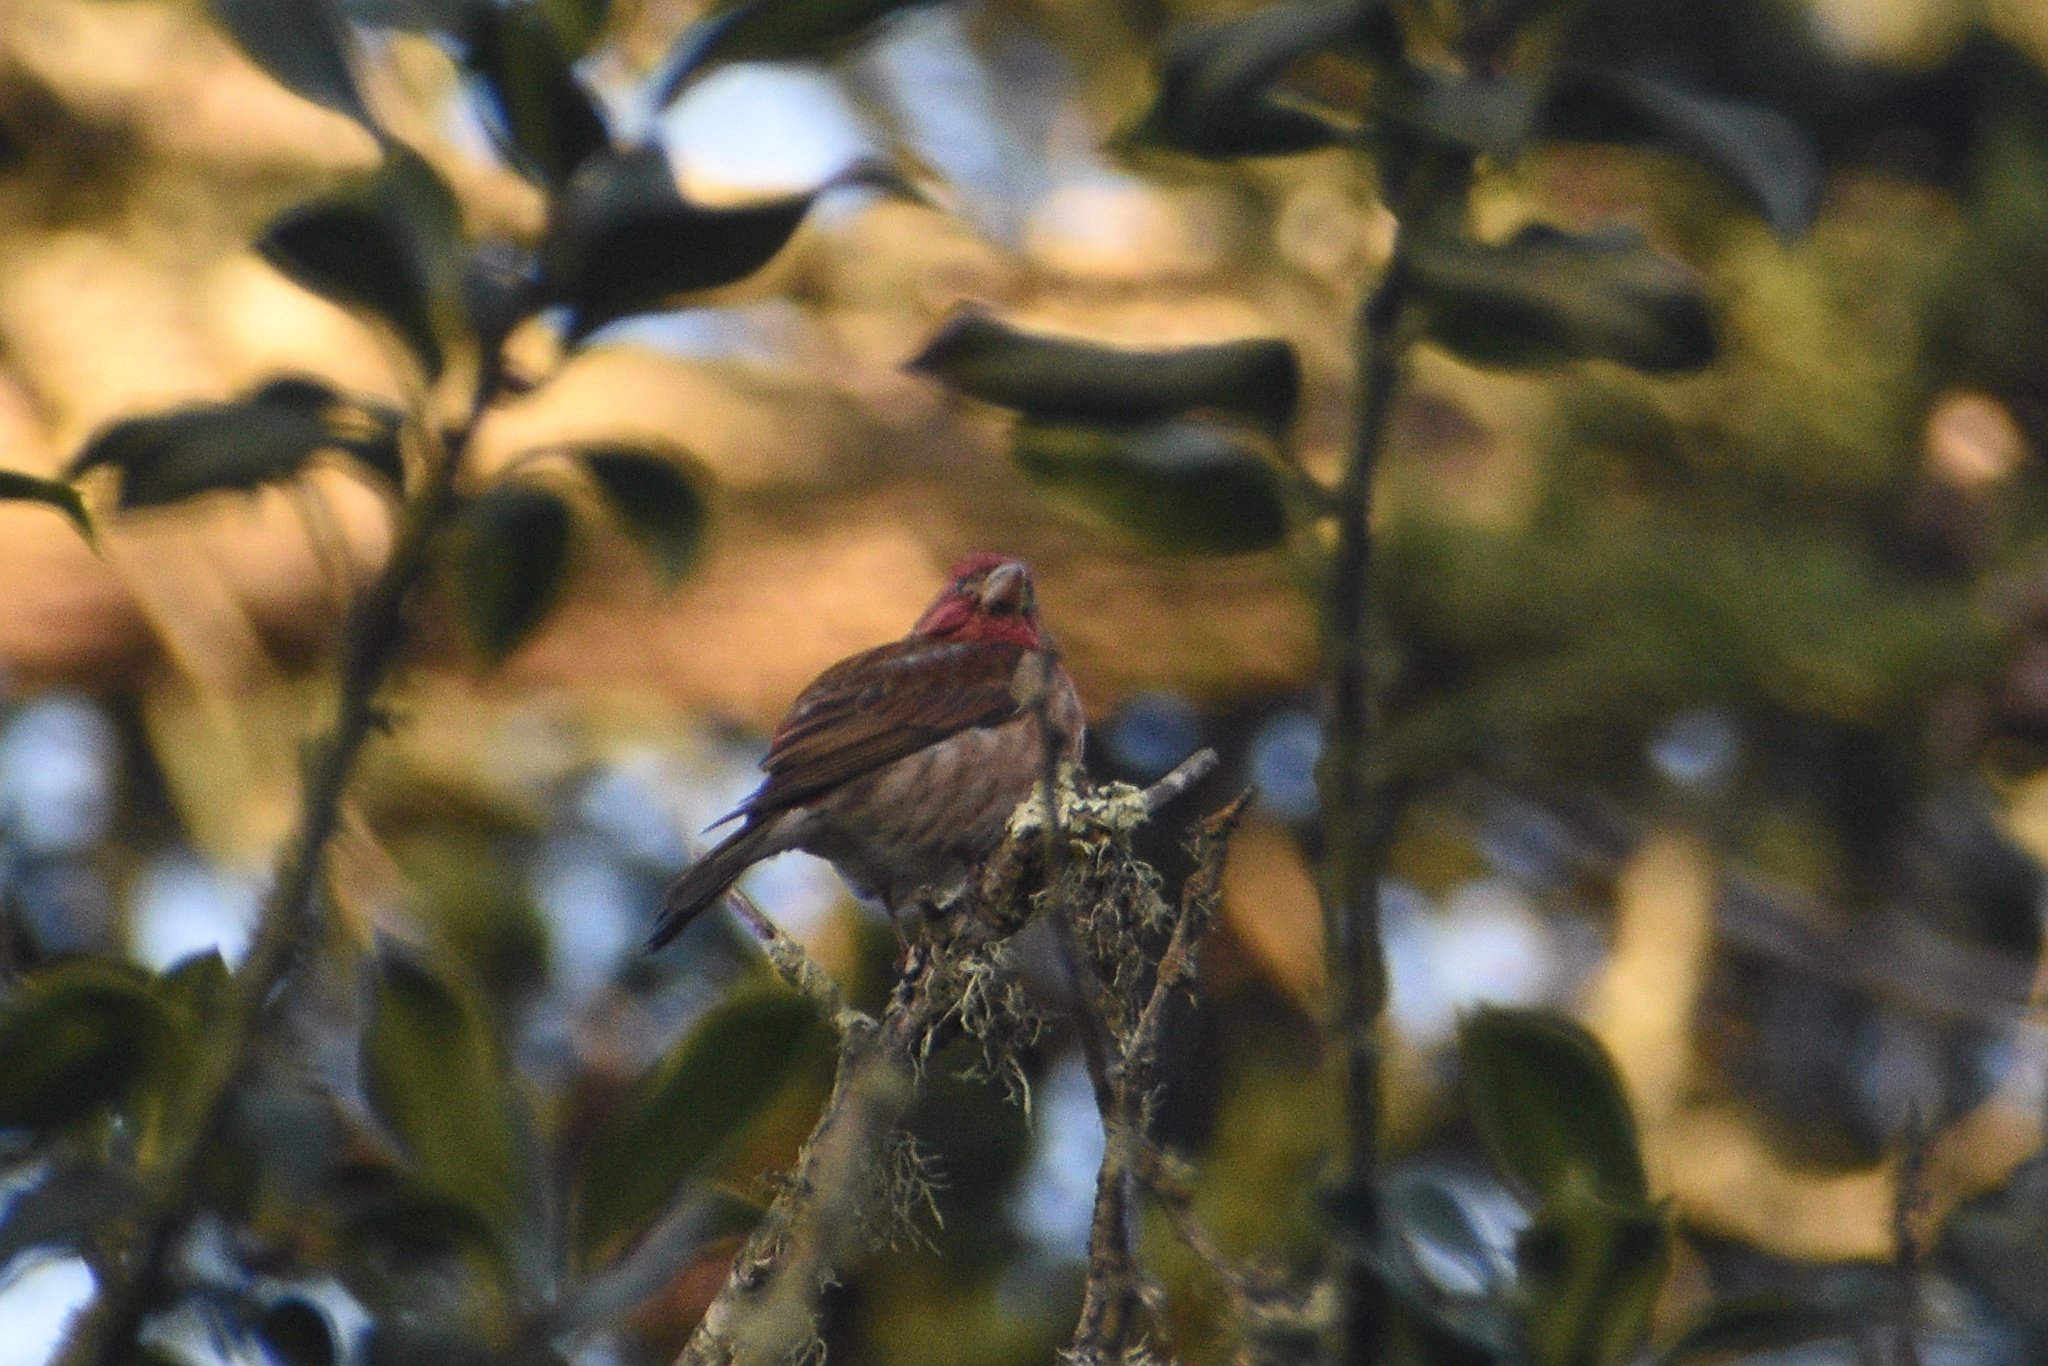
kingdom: Animalia
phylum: Chordata
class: Aves
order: Passeriformes
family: Fringillidae
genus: Haemorhous
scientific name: Haemorhous purpureus
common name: Purple finch
